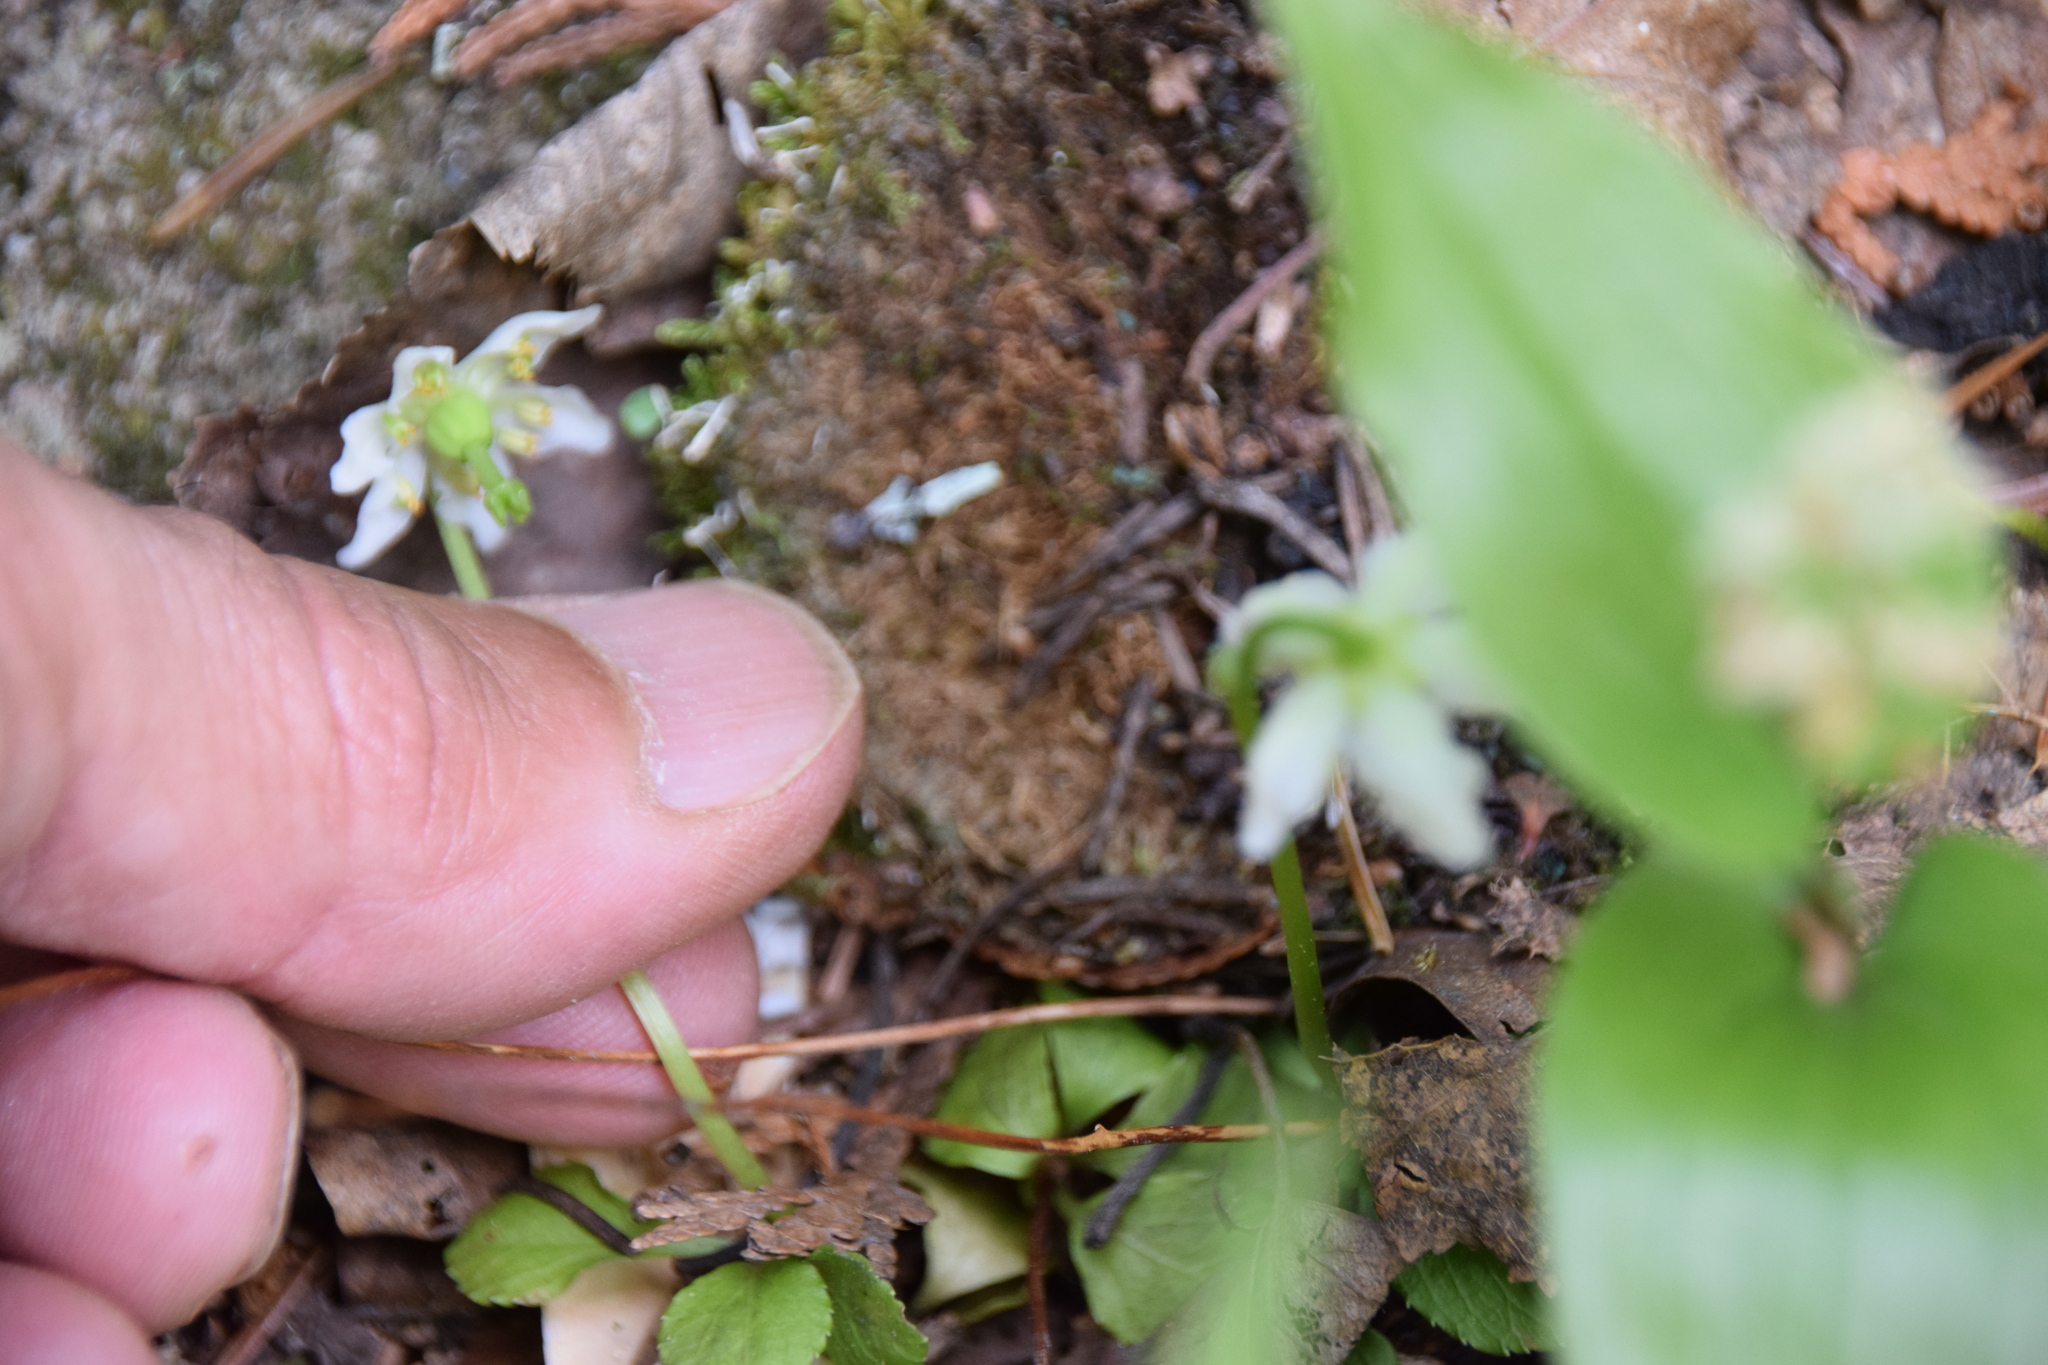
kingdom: Plantae
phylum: Tracheophyta
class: Magnoliopsida
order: Ericales
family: Ericaceae
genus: Moneses
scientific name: Moneses uniflora
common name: One-flowered wintergreen
